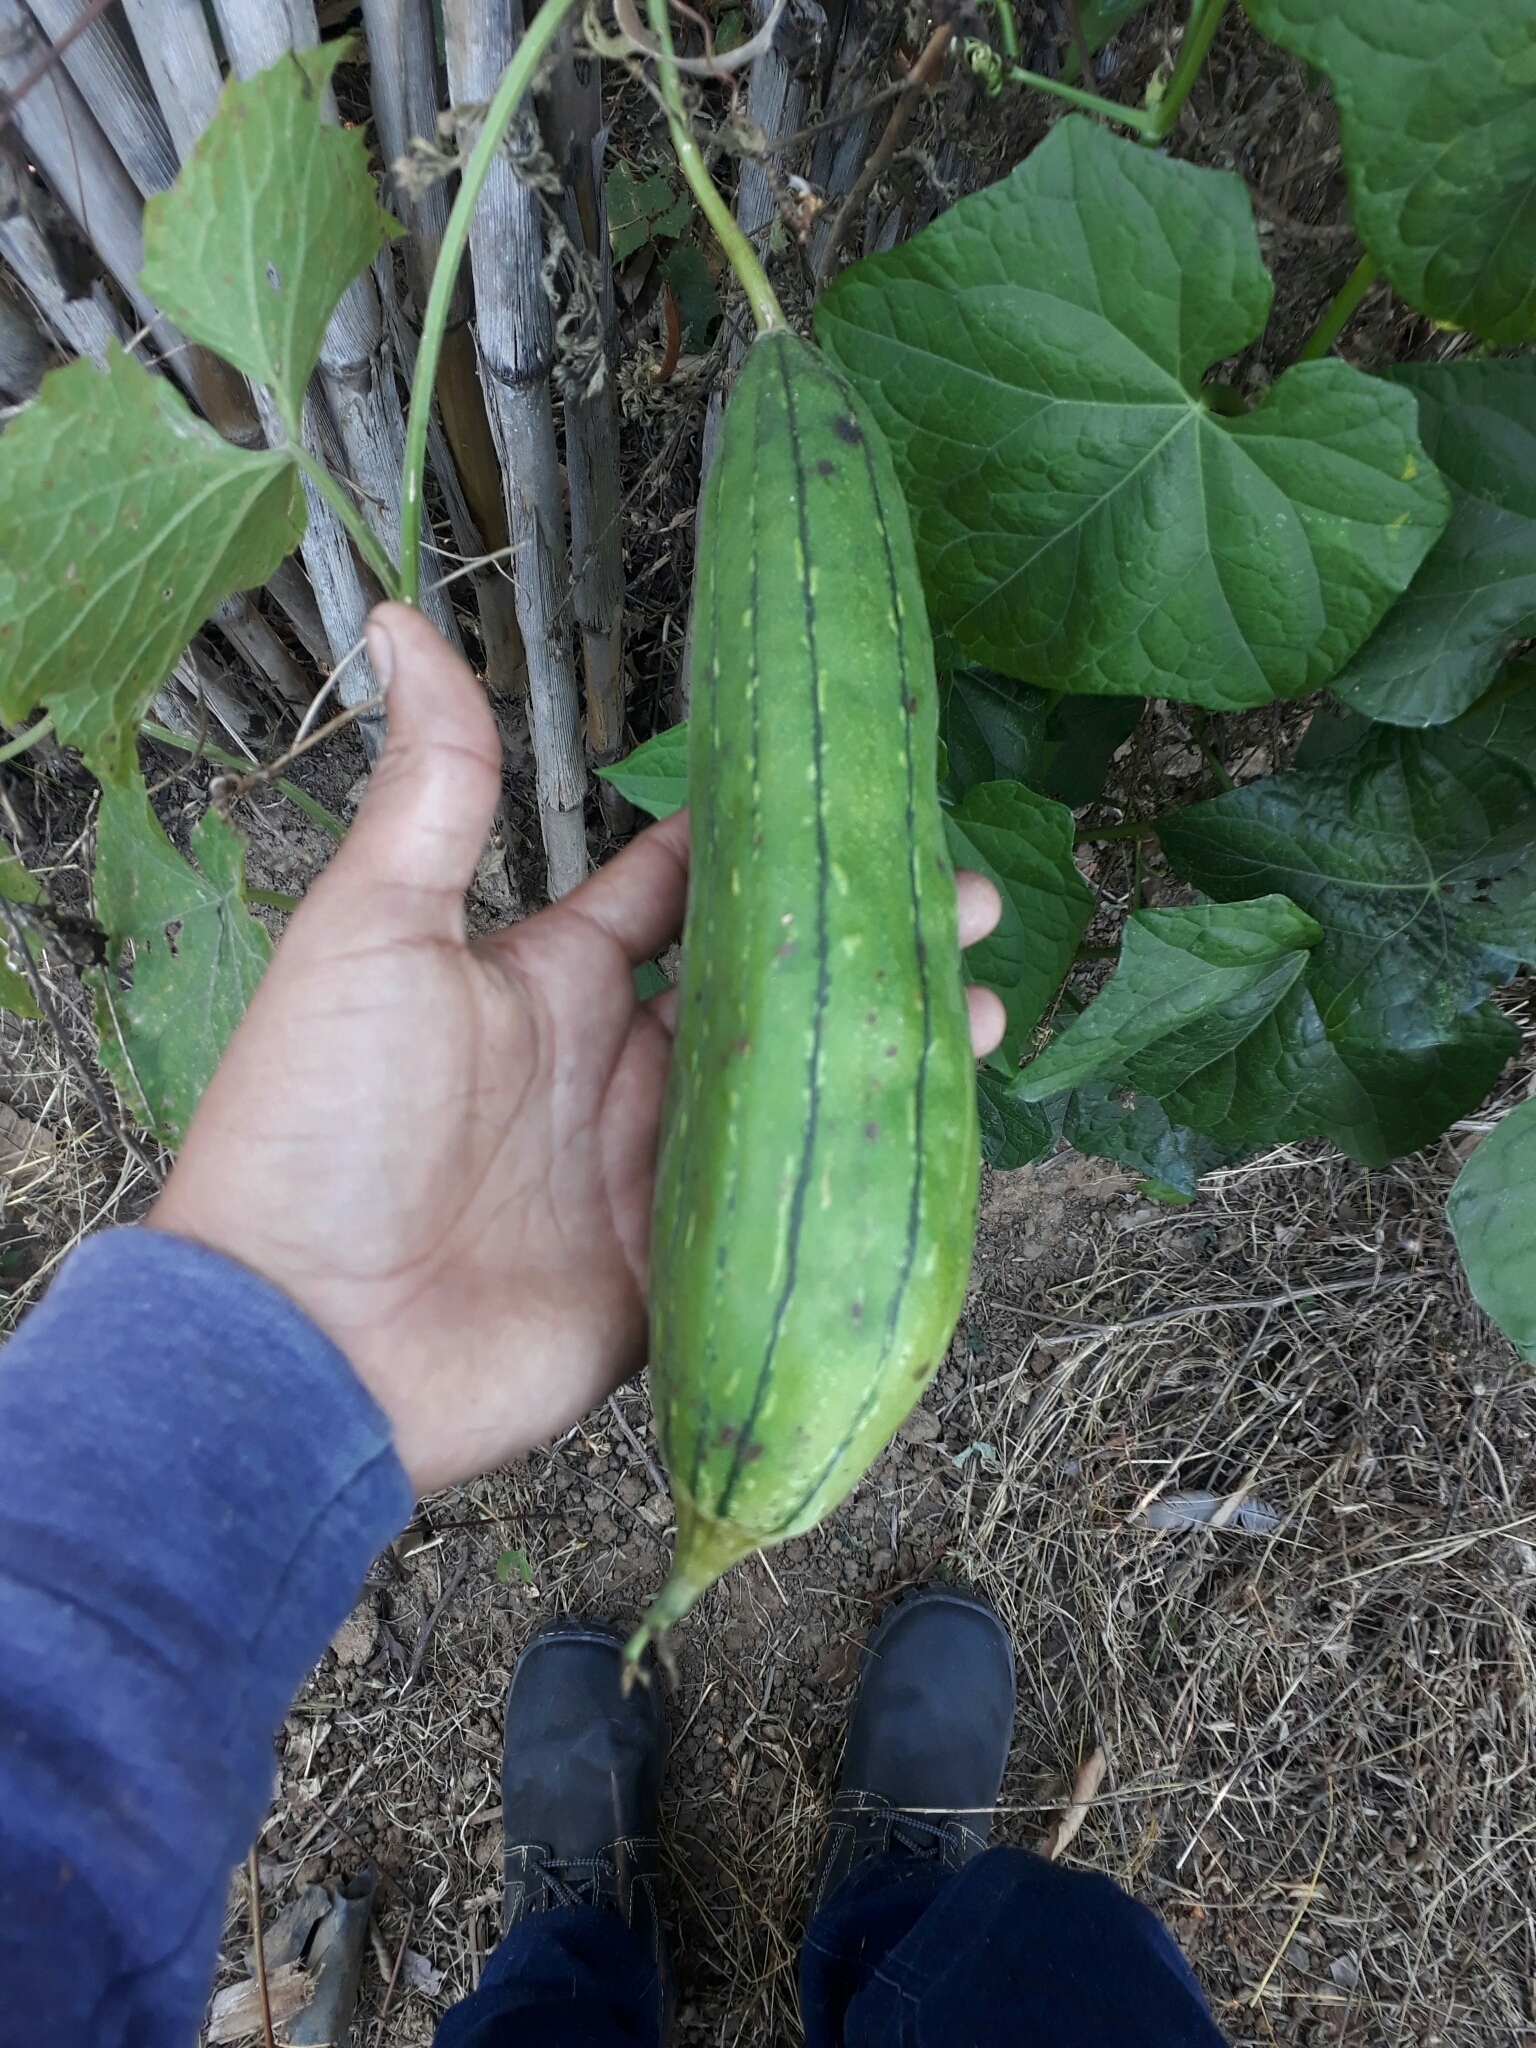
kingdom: Plantae
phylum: Tracheophyta
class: Magnoliopsida
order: Cucurbitales
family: Cucurbitaceae
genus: Luffa
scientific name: Luffa aegyptiaca
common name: Sponge gourd
